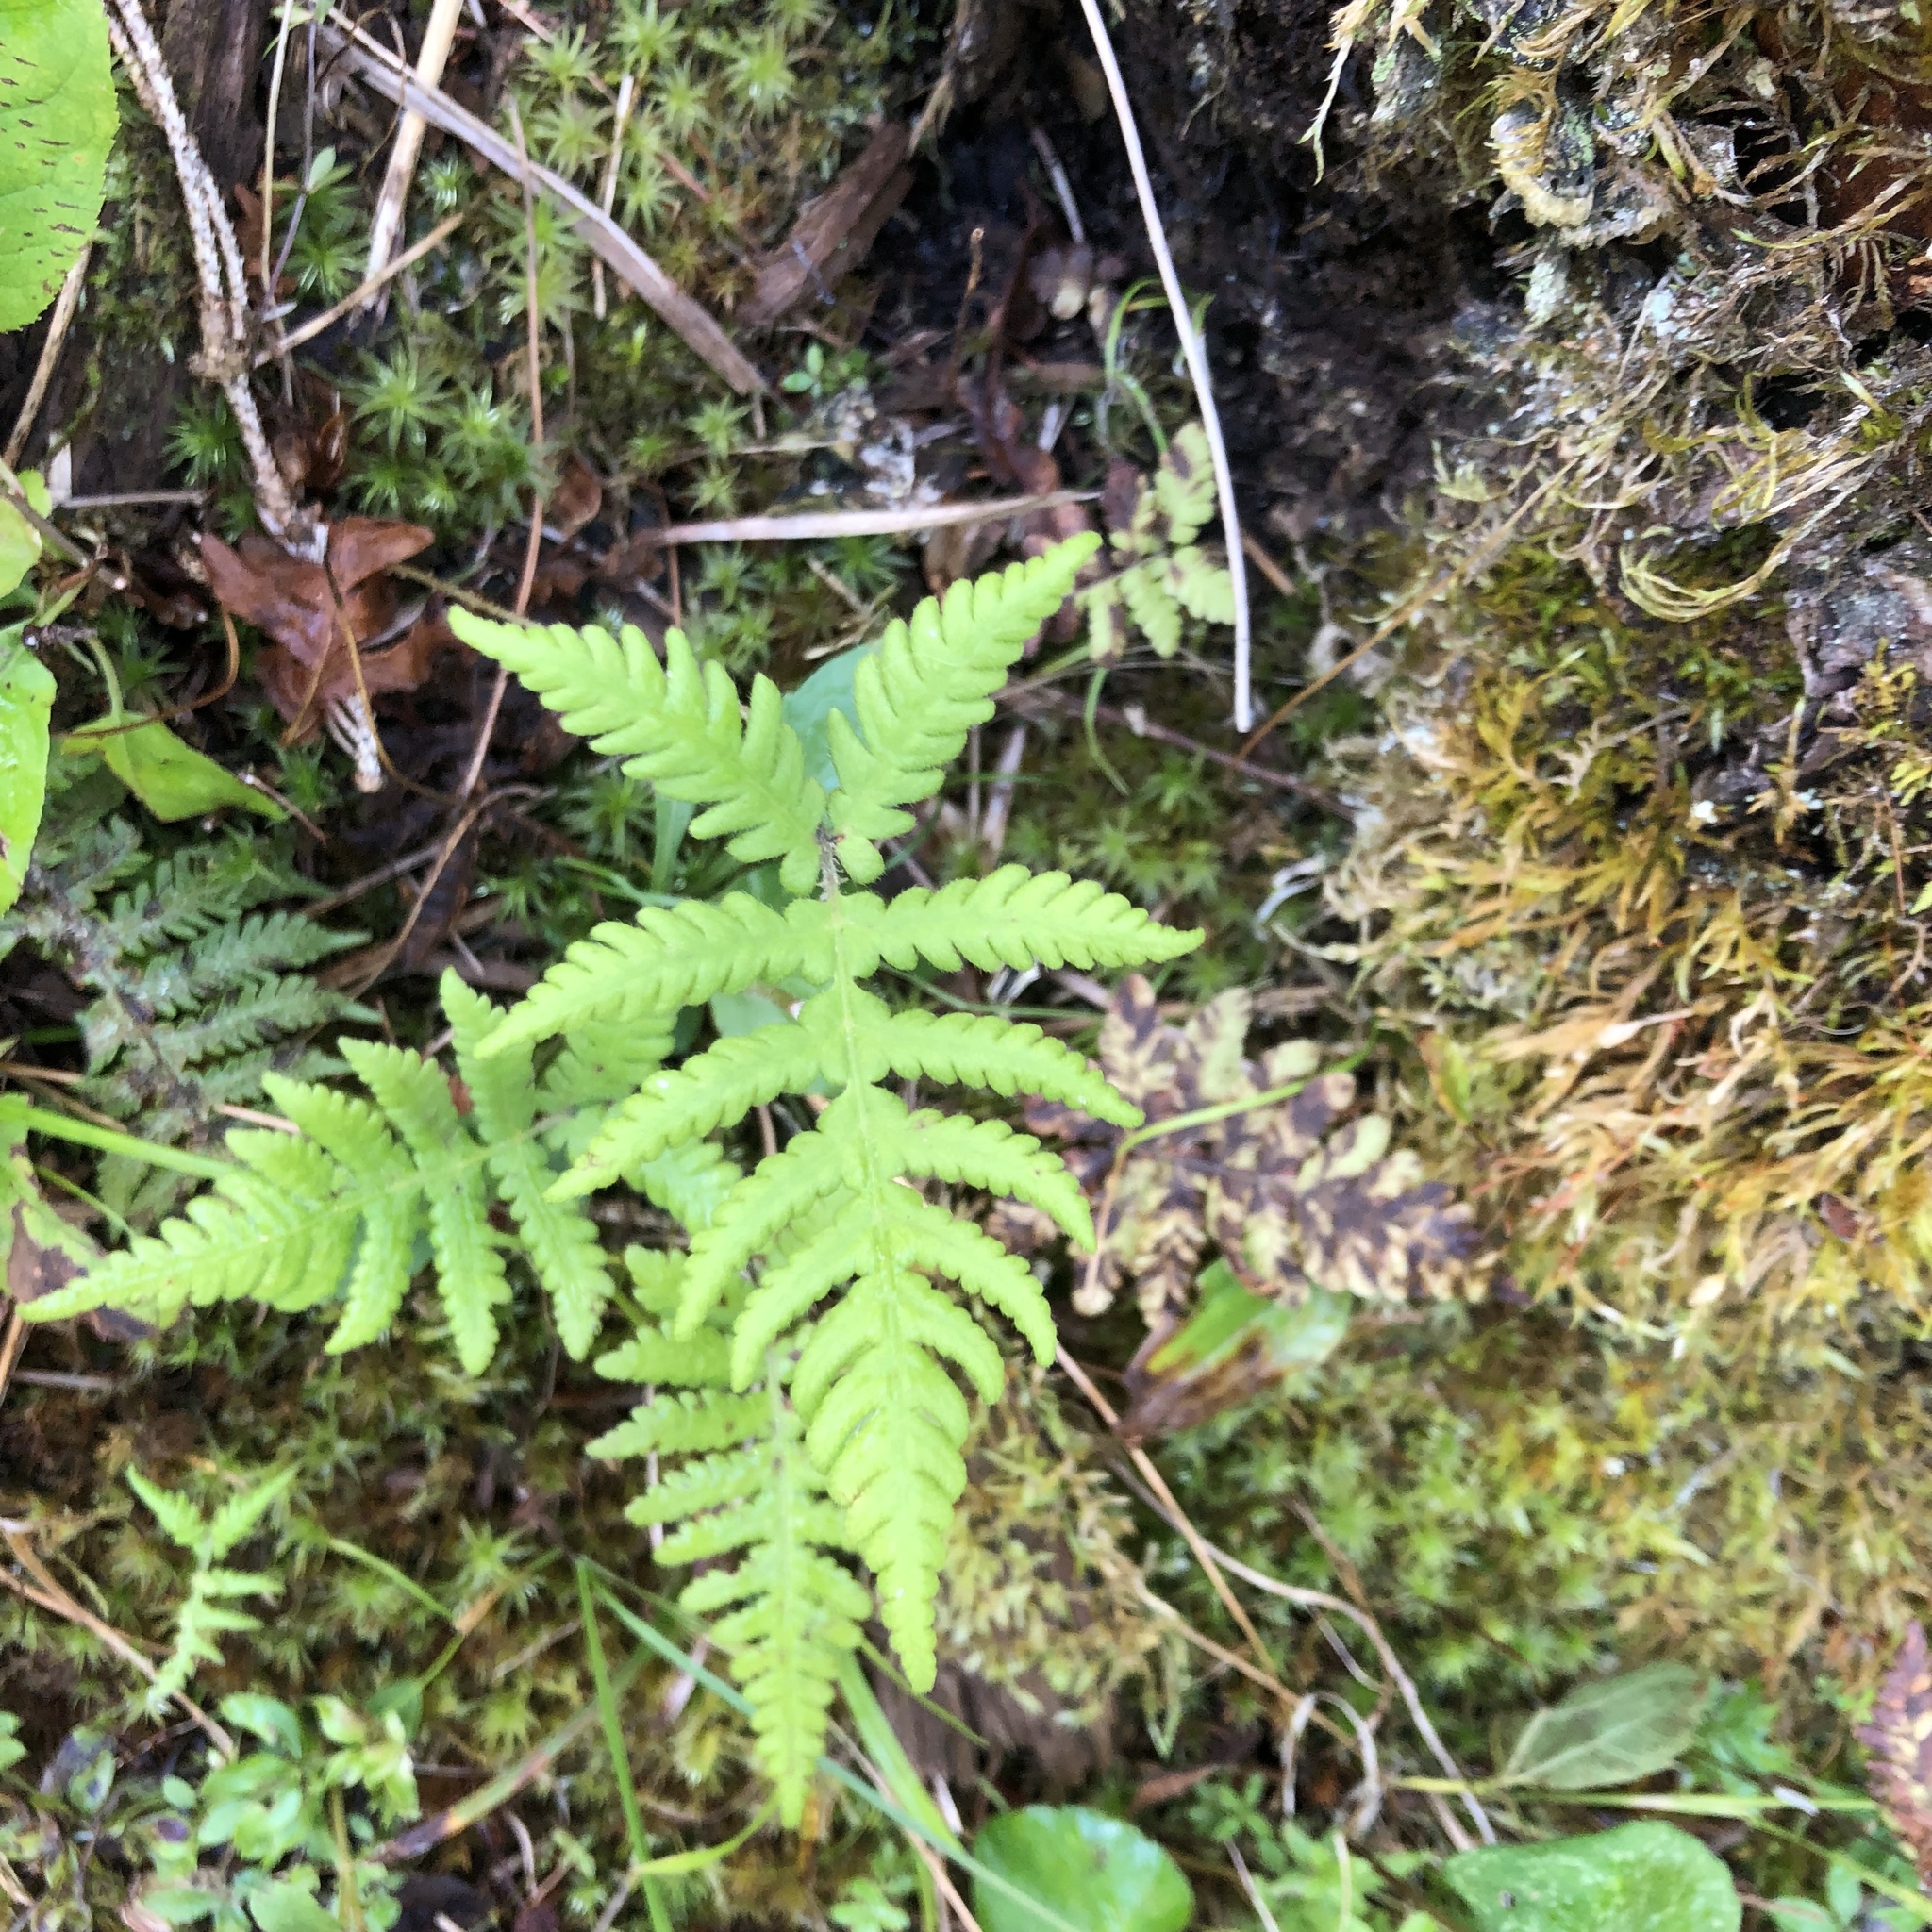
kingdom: Plantae
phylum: Tracheophyta
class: Polypodiopsida
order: Polypodiales
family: Thelypteridaceae
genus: Phegopteris
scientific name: Phegopteris connectilis
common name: Beech fern
